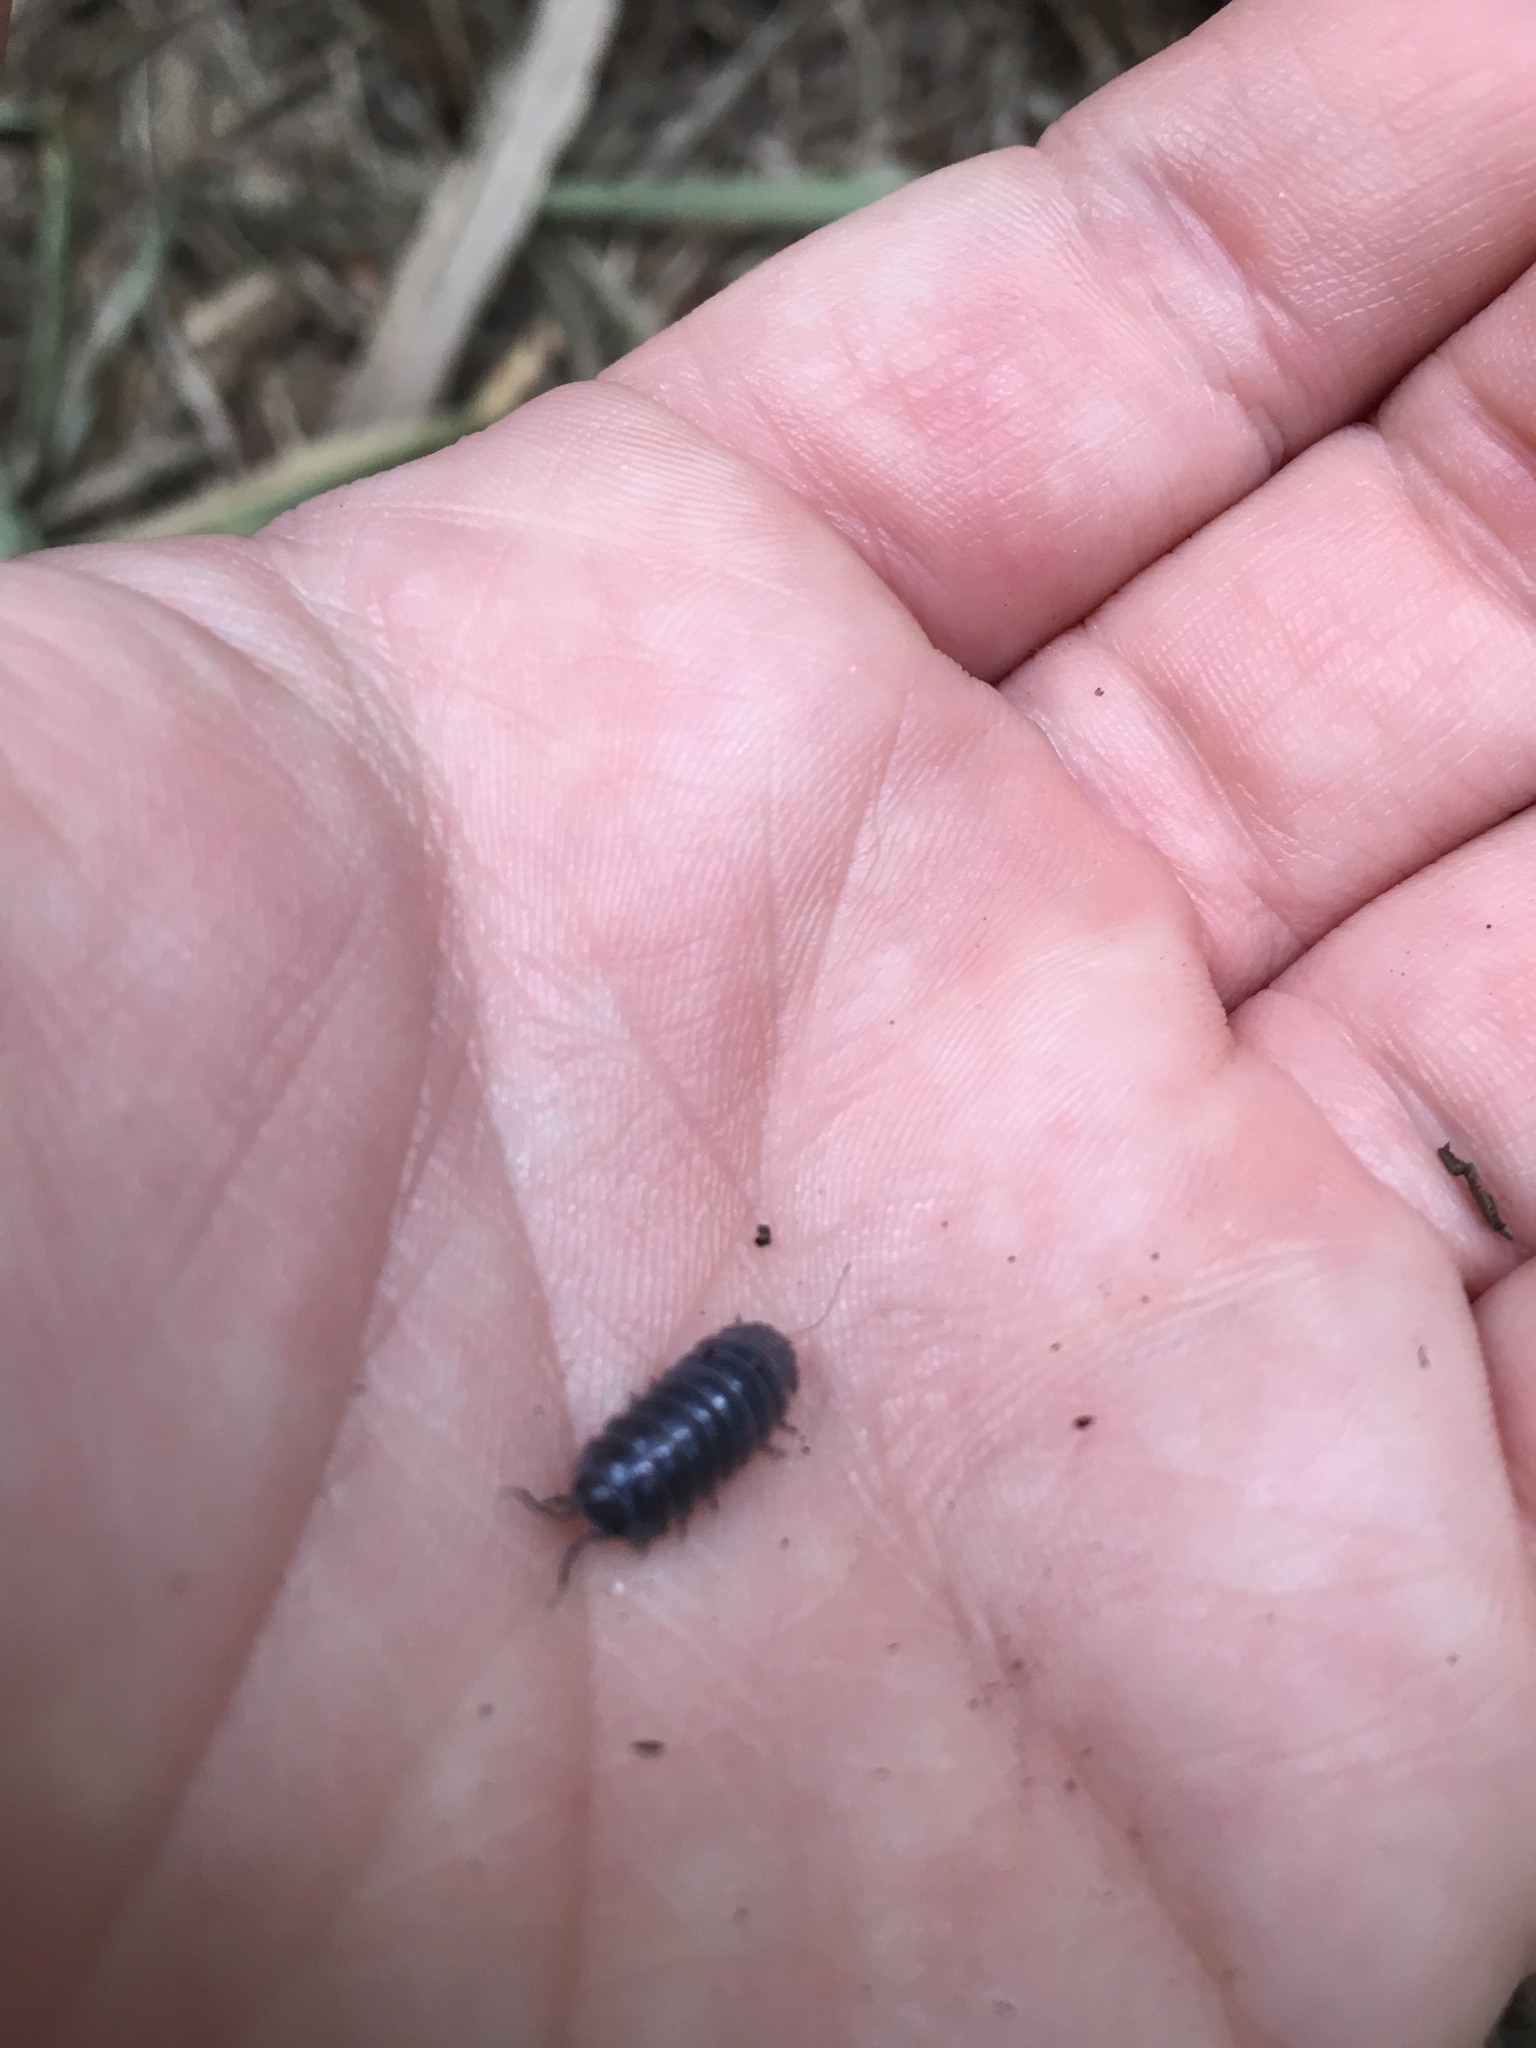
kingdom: Animalia
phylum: Arthropoda
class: Malacostraca
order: Isopoda
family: Armadillidiidae
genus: Armadillidium
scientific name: Armadillidium vulgare
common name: Common pill woodlouse
